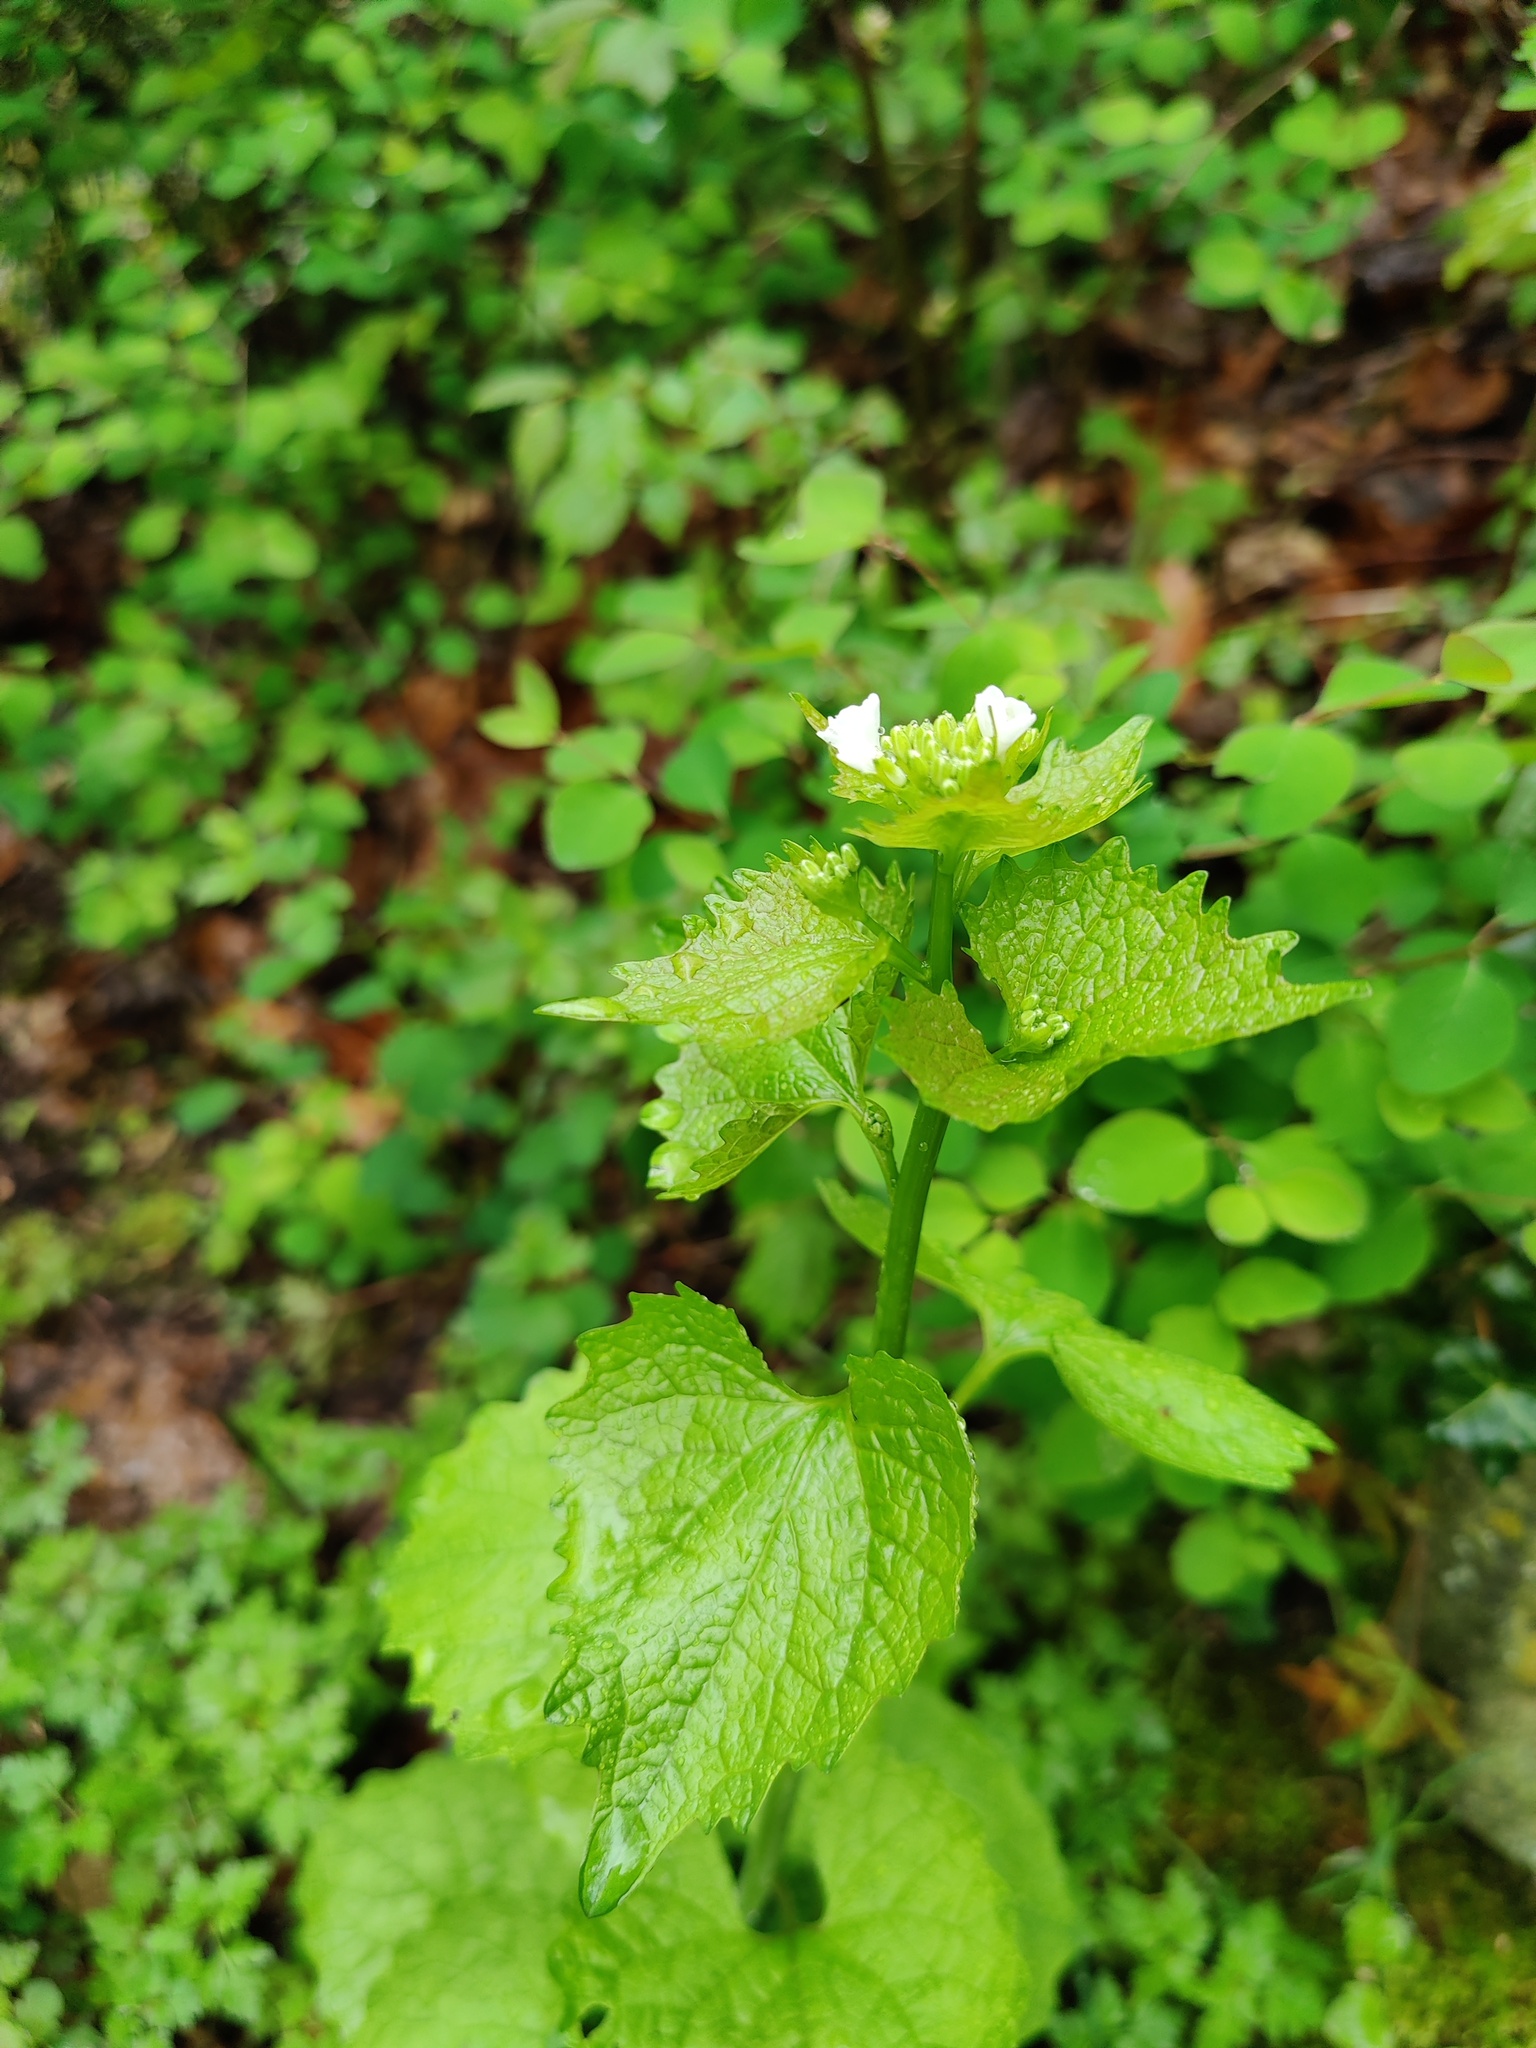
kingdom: Plantae
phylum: Tracheophyta
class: Magnoliopsida
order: Brassicales
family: Brassicaceae
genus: Alliaria
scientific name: Alliaria petiolata
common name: Garlic mustard
